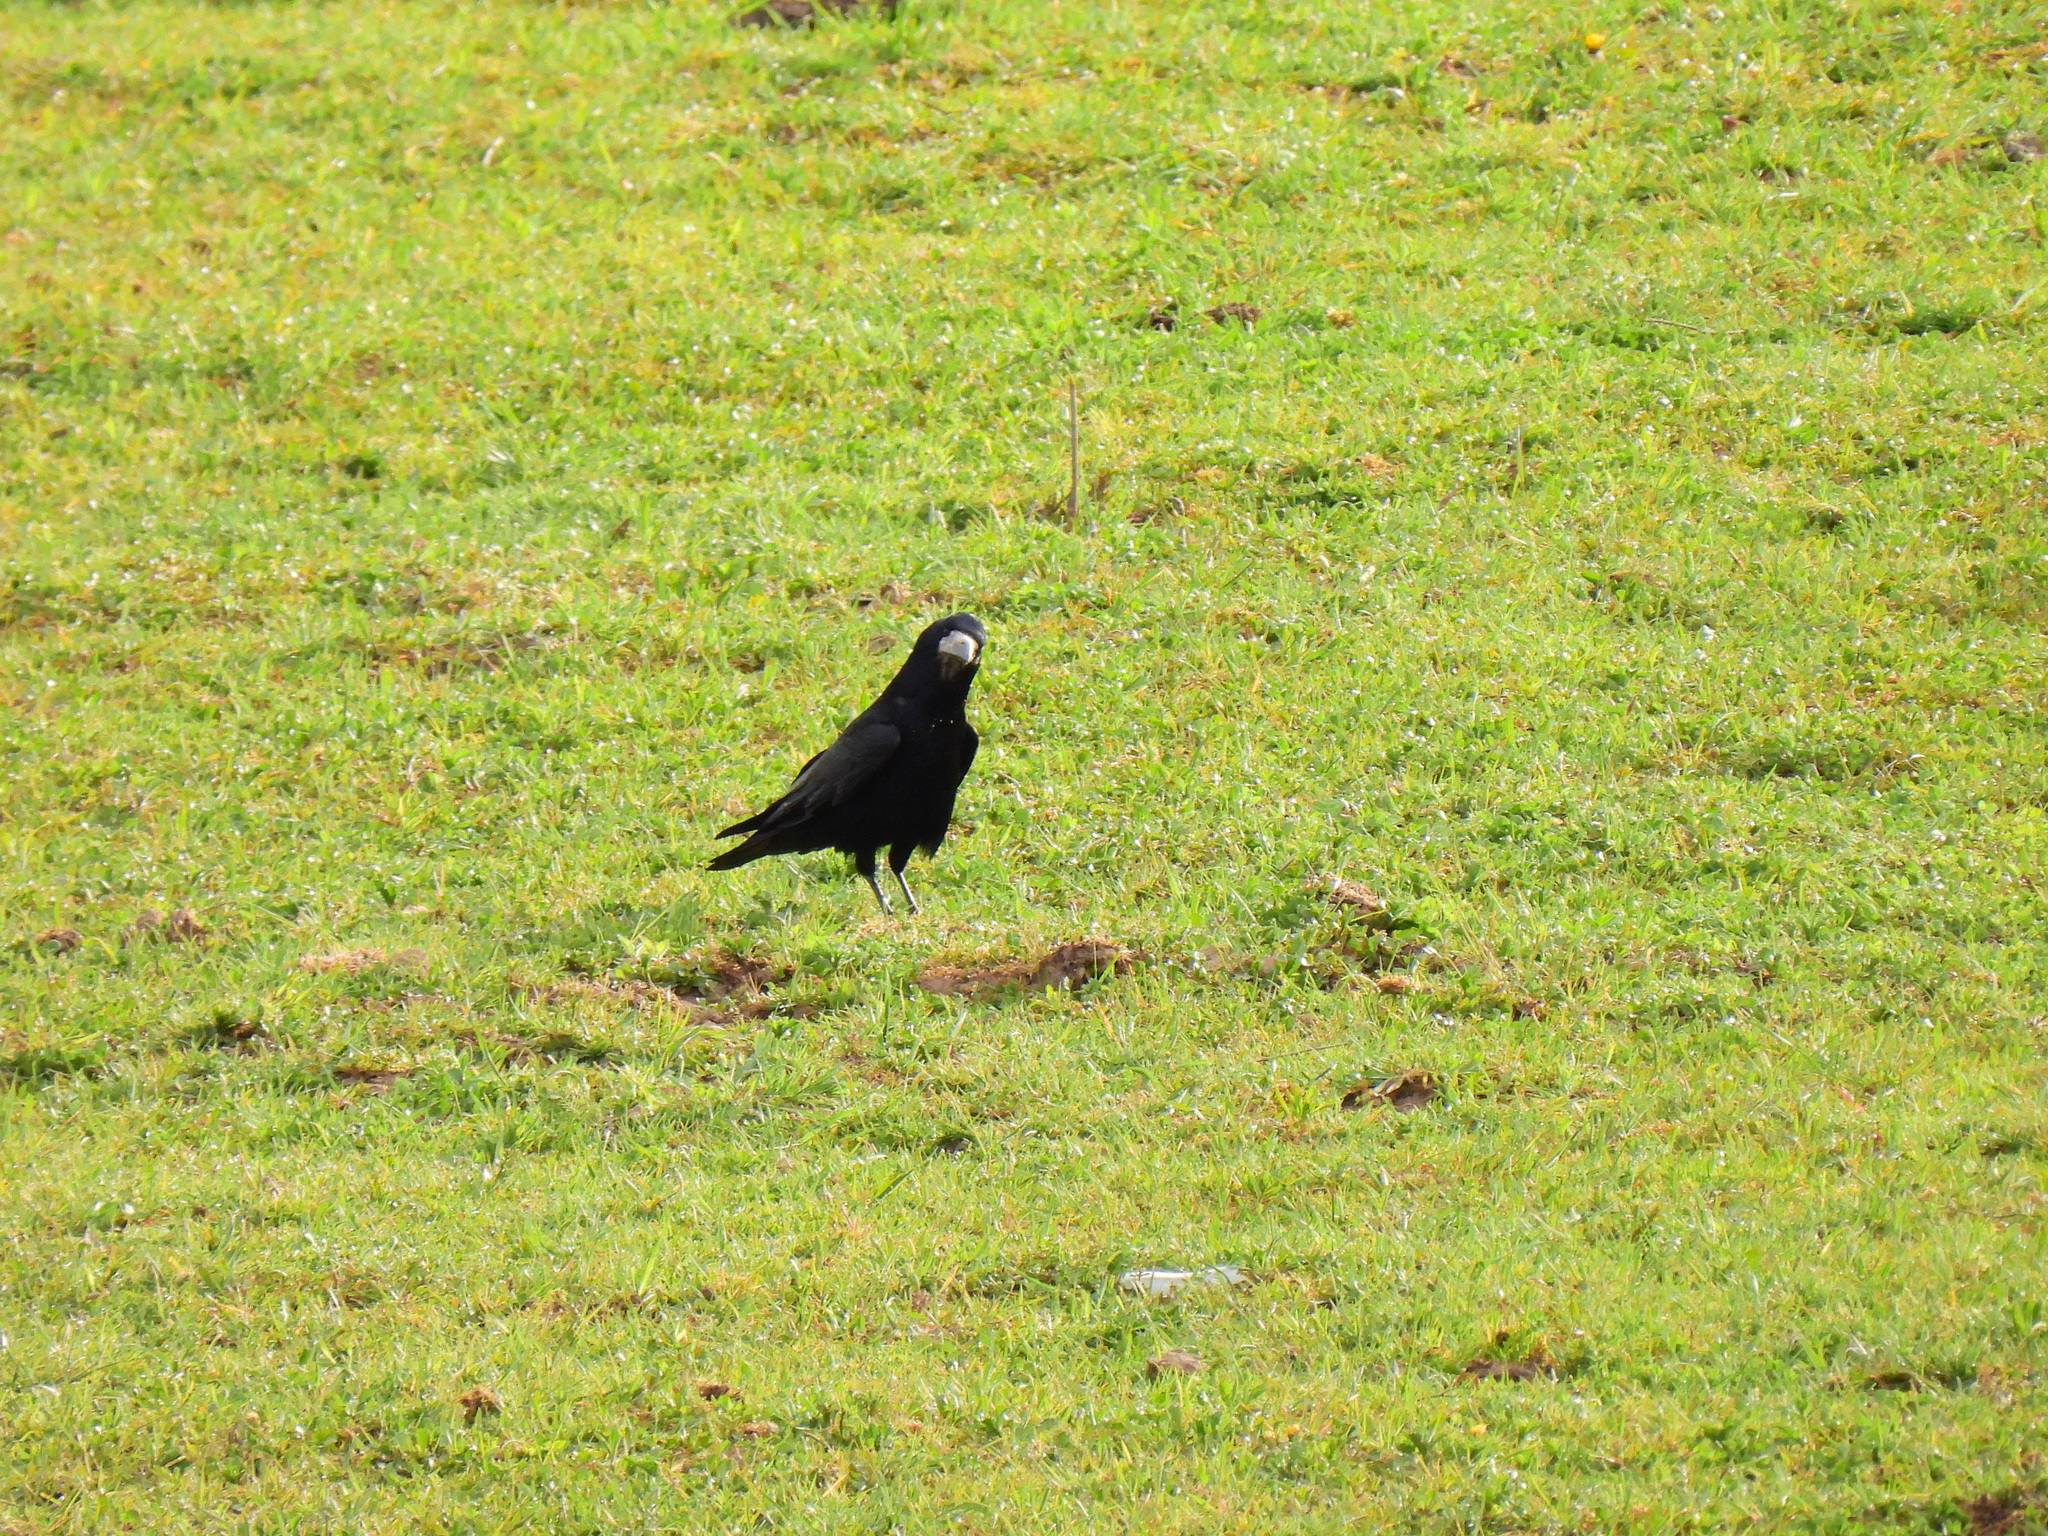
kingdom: Animalia
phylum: Chordata
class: Aves
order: Passeriformes
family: Corvidae
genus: Corvus
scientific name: Corvus frugilegus
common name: Rook
